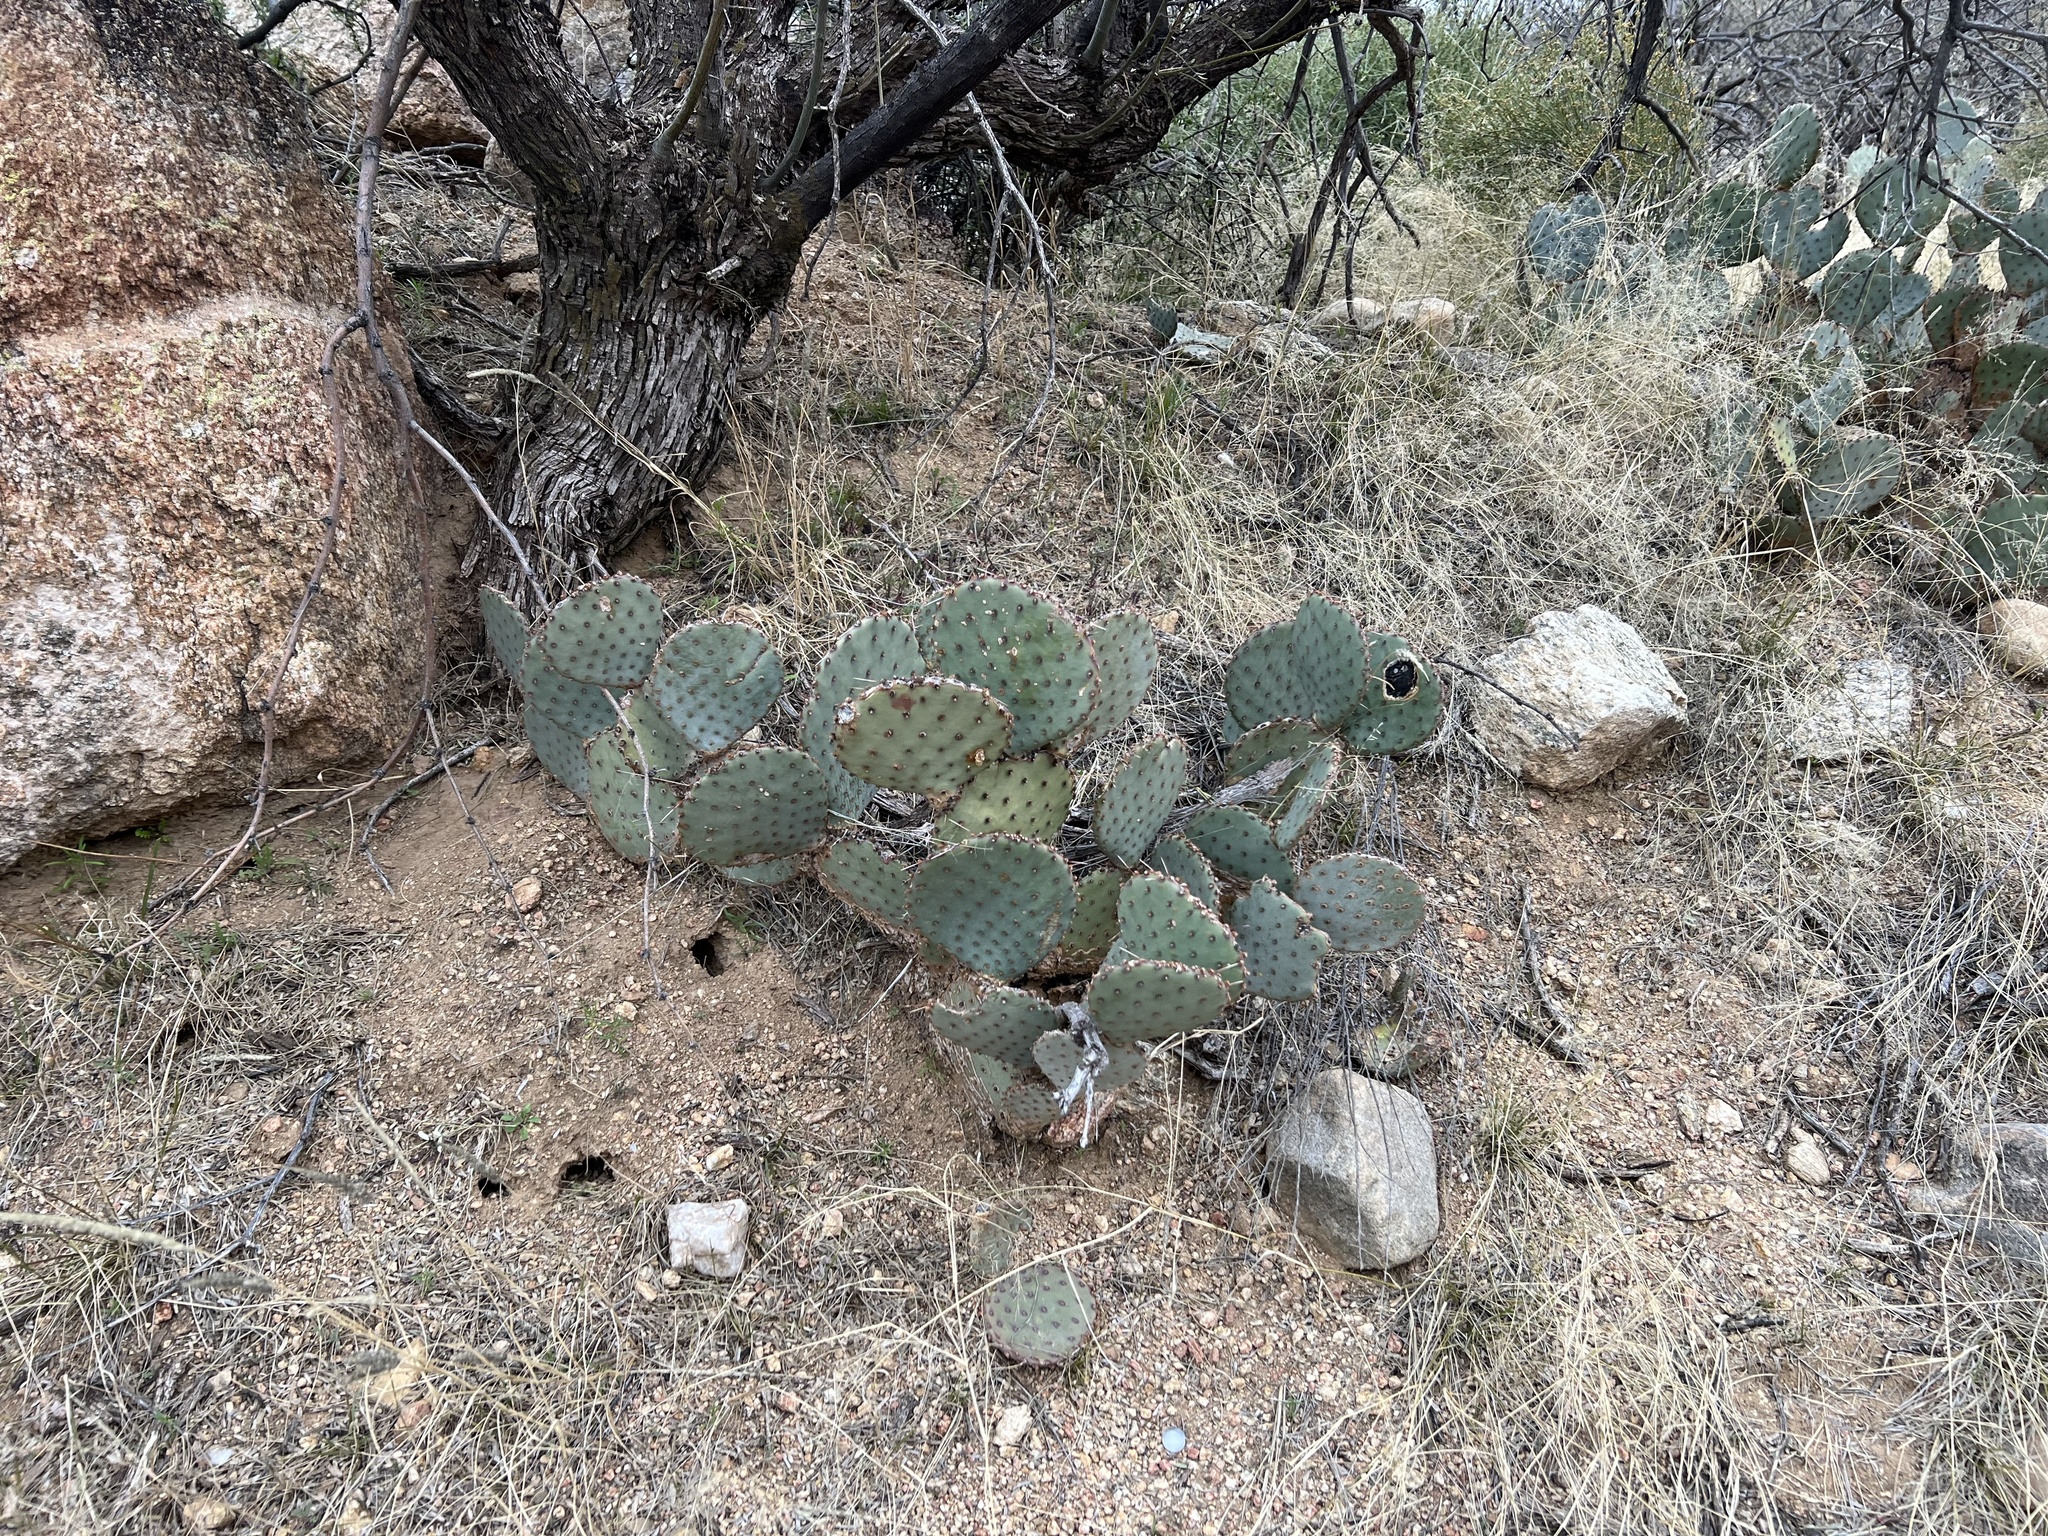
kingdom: Plantae
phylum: Tracheophyta
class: Magnoliopsida
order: Caryophyllales
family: Cactaceae
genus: Opuntia
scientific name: Opuntia macrocentra
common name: Purple prickly-pear
